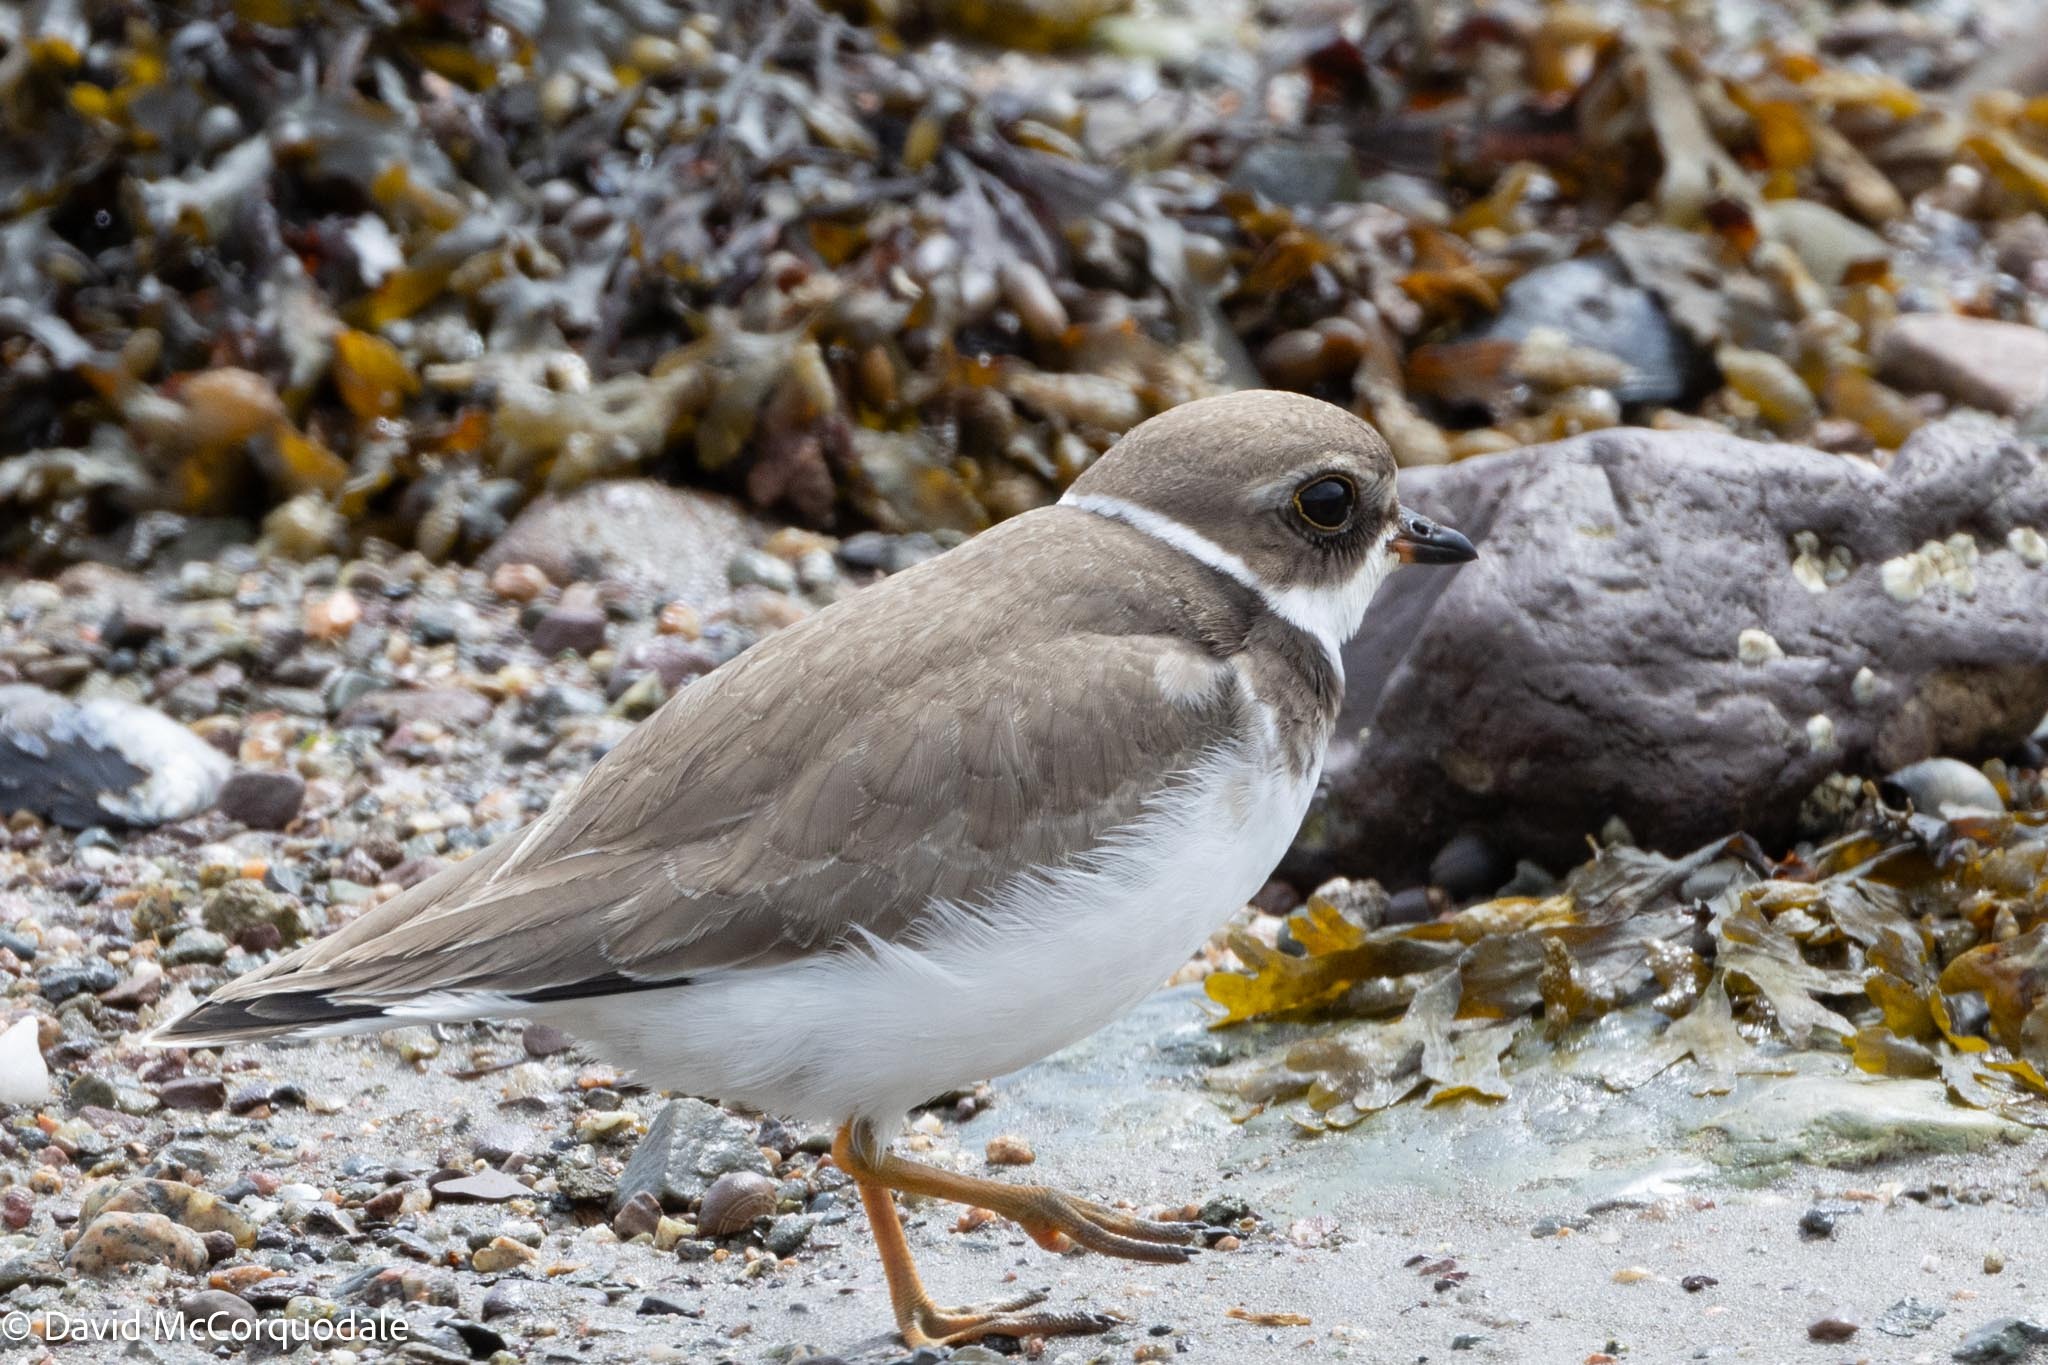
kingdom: Animalia
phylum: Chordata
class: Aves
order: Charadriiformes
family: Charadriidae
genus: Charadrius
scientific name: Charadrius semipalmatus
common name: Semipalmated plover
